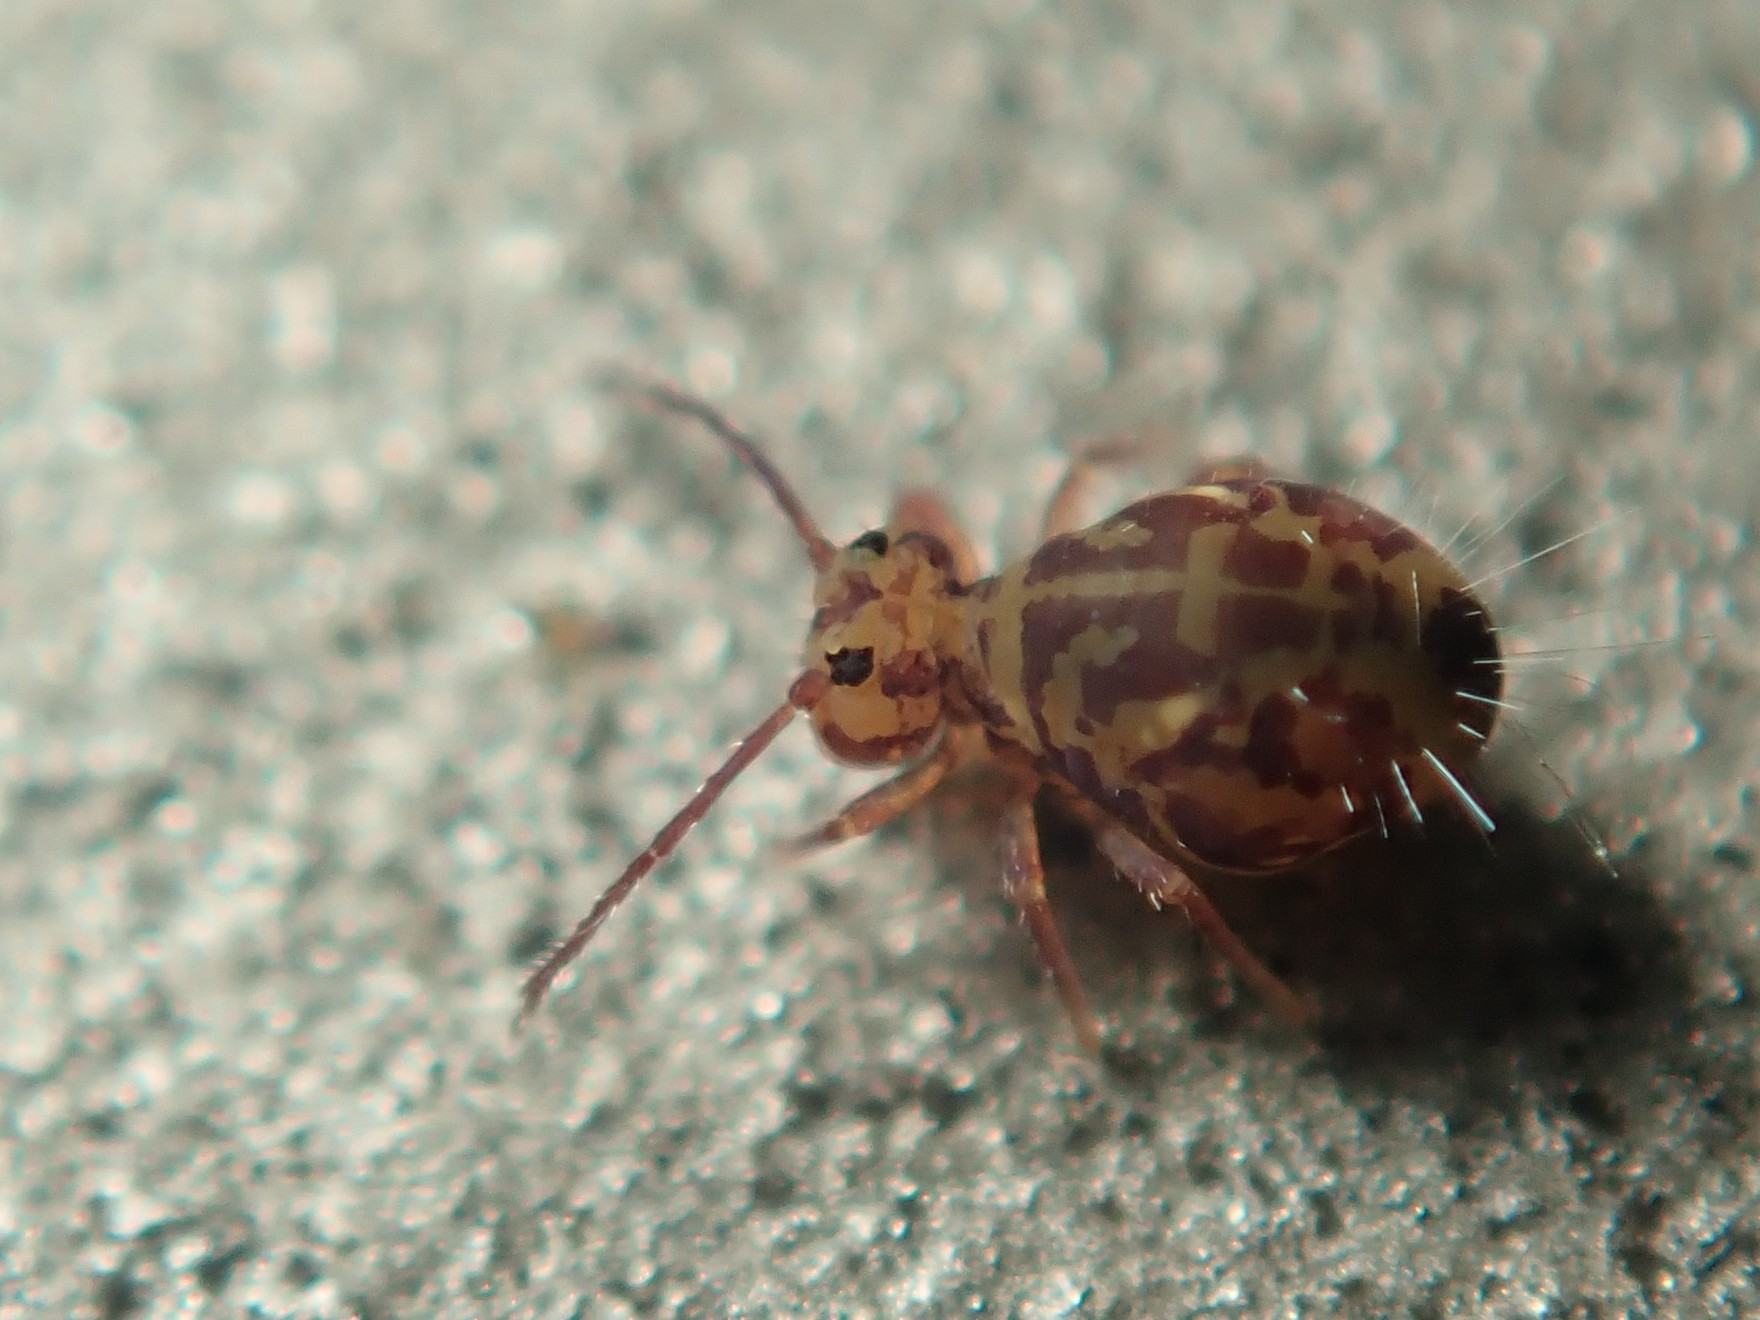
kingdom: Animalia
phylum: Arthropoda
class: Collembola
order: Symphypleona
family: Dicyrtomidae
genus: Dicyrtomina
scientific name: Dicyrtomina ornata
